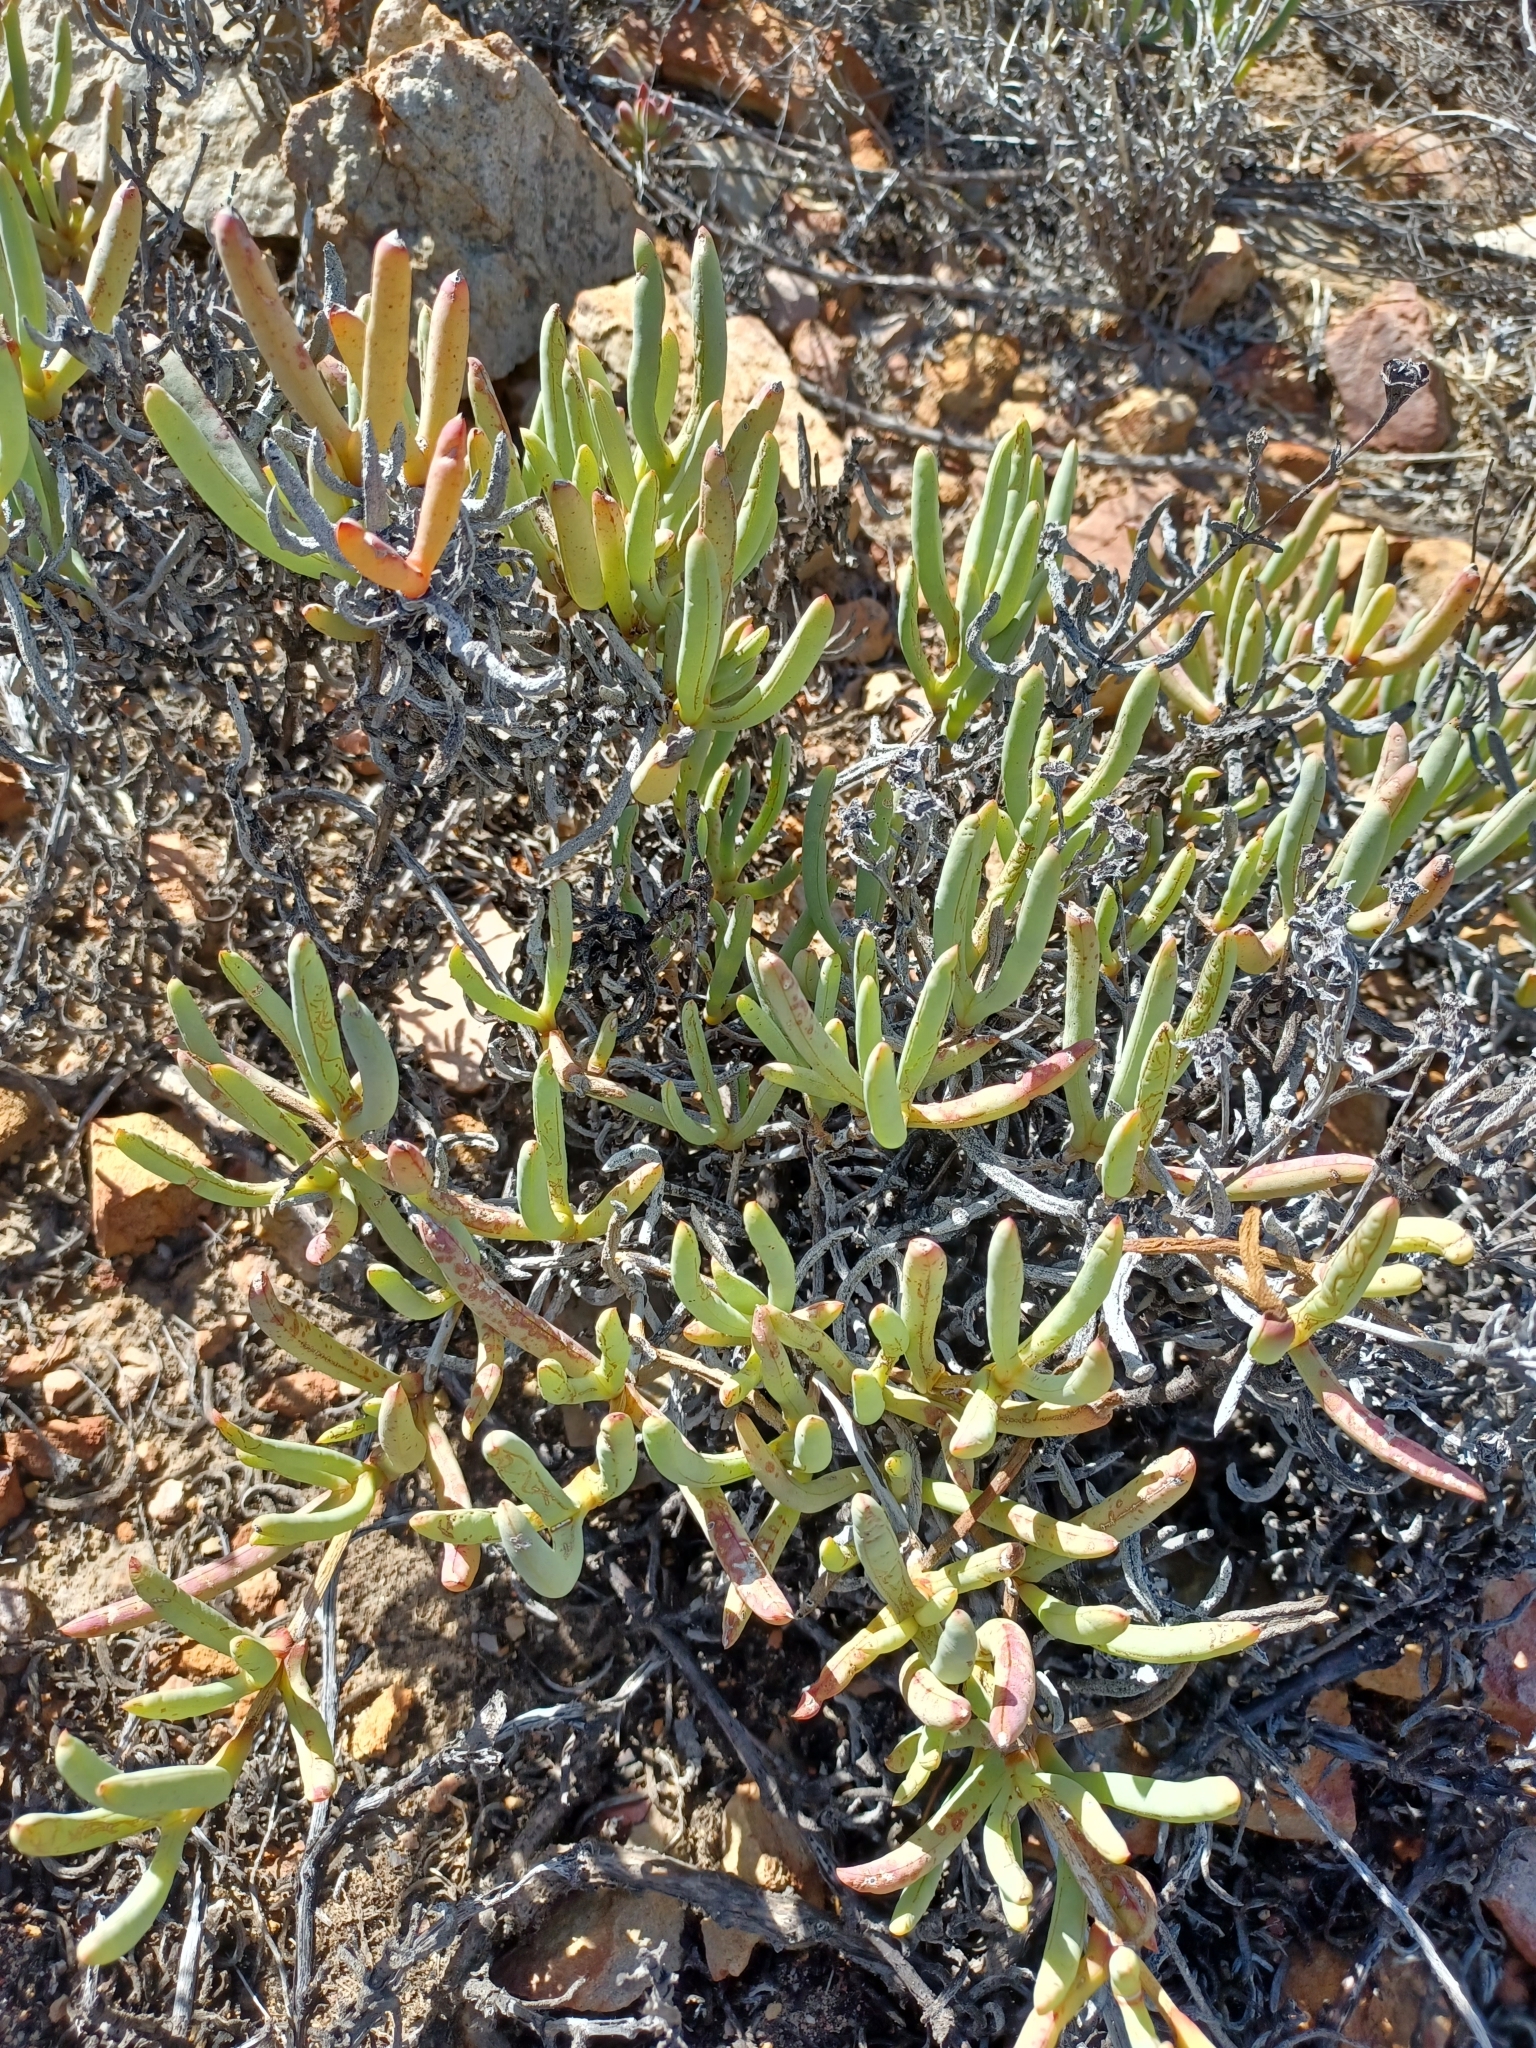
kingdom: Plantae
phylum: Tracheophyta
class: Magnoliopsida
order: Caryophyllales
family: Aizoaceae
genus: Ruschia
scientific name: Ruschia caroli
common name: Shrubby dewplant
